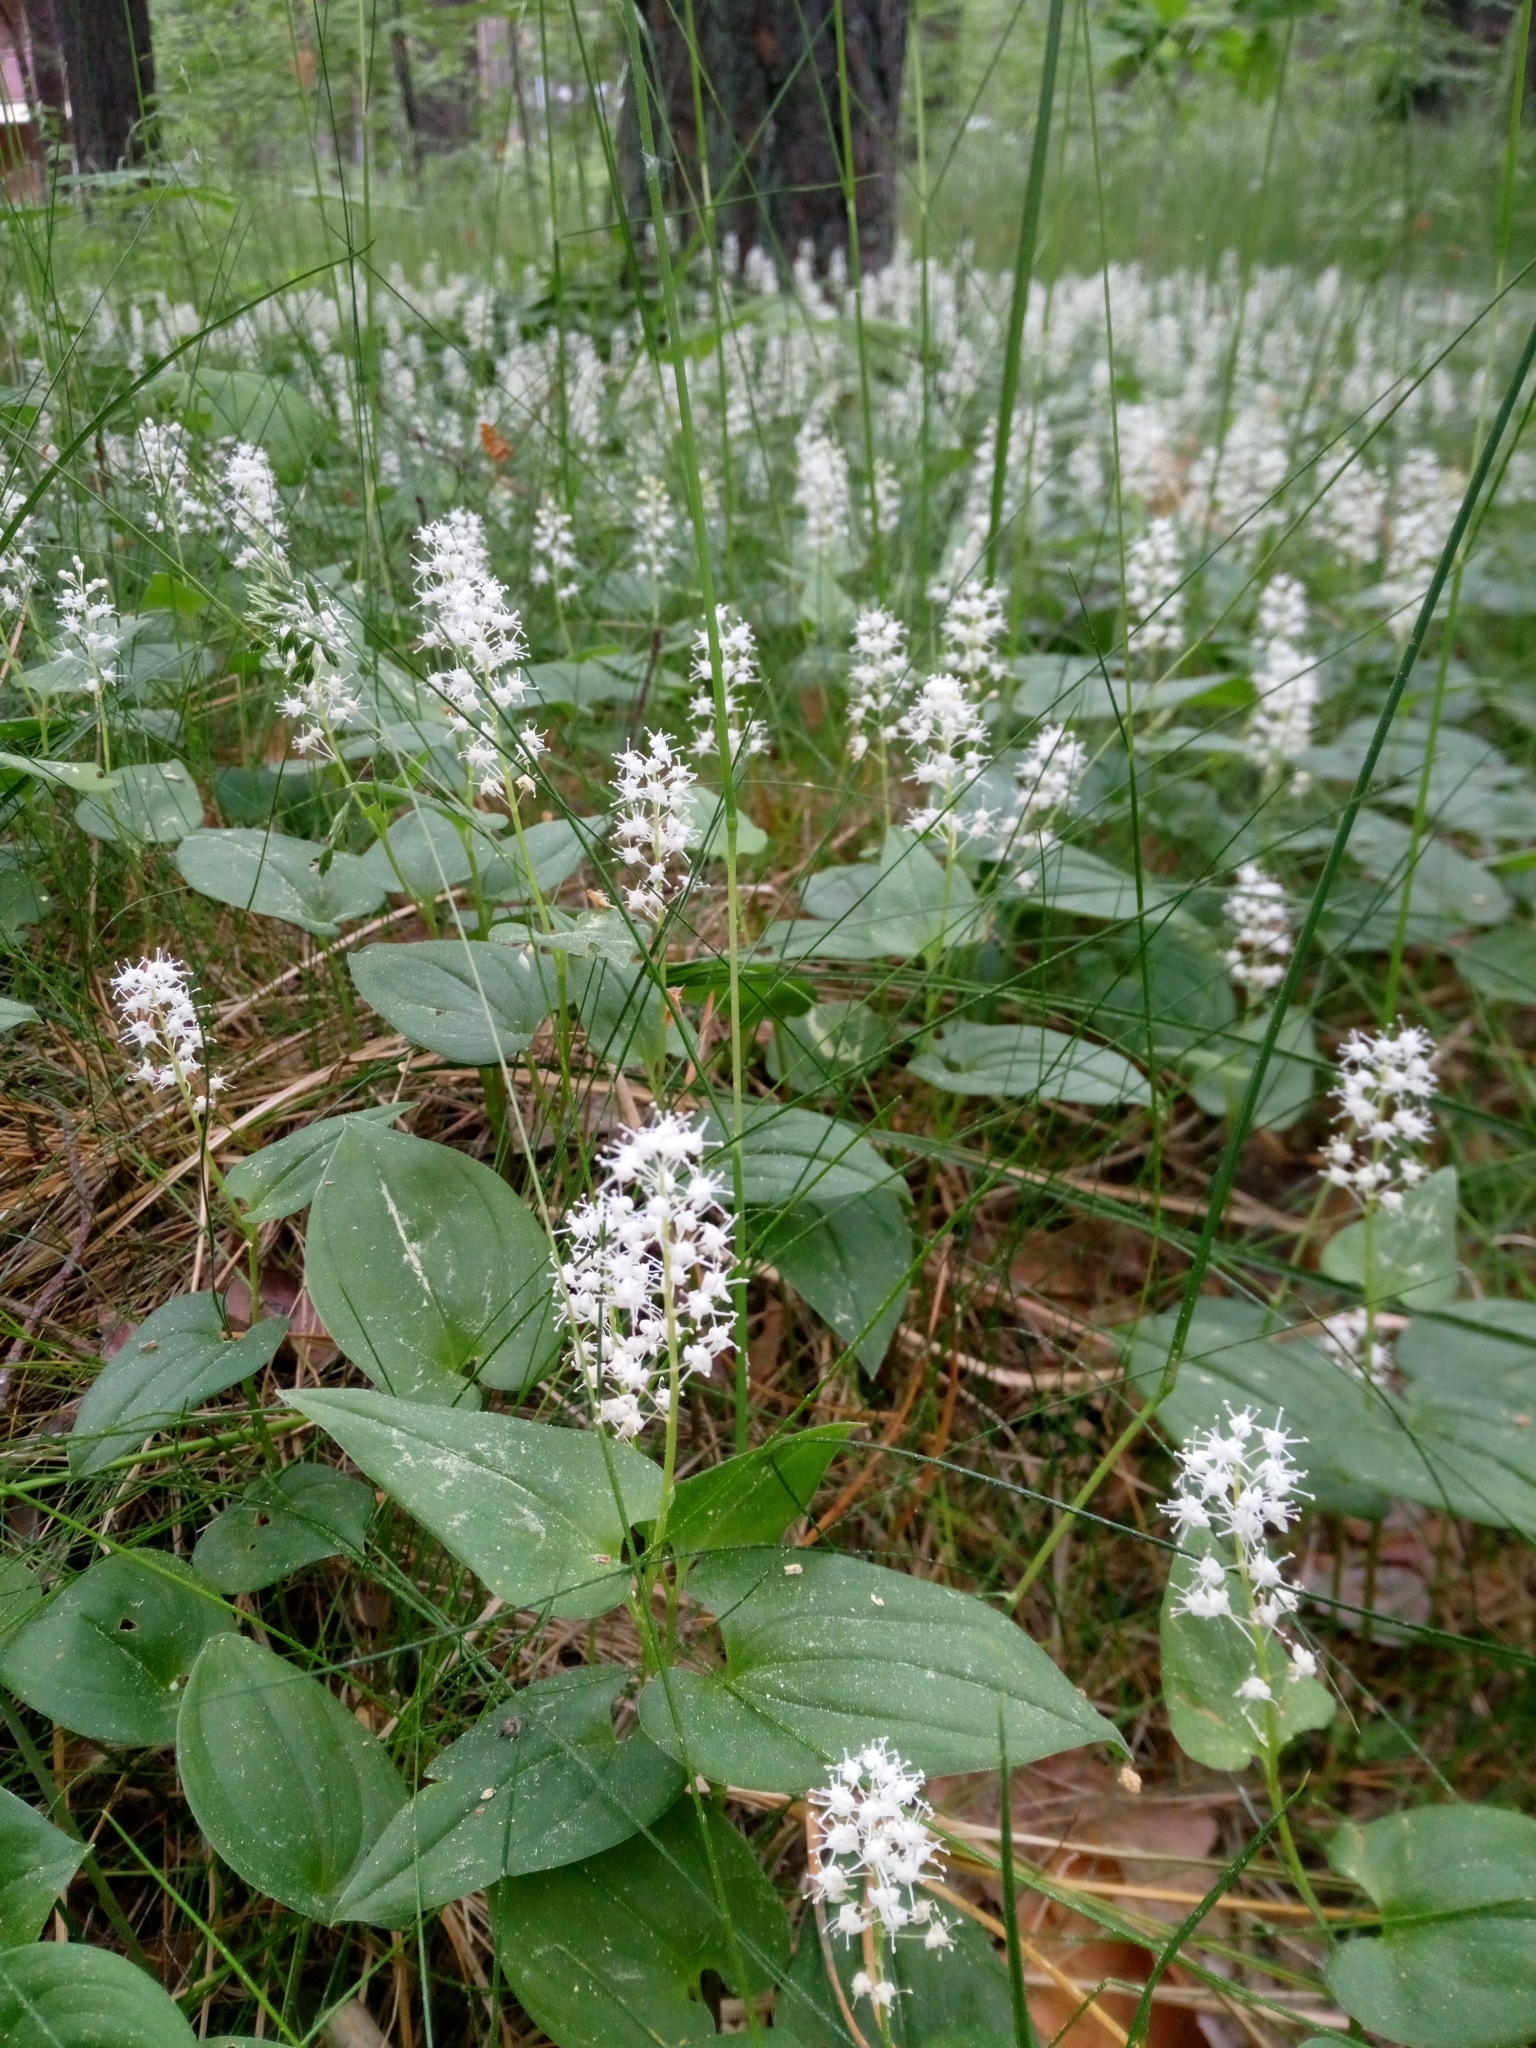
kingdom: Plantae
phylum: Tracheophyta
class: Liliopsida
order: Asparagales
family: Asparagaceae
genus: Maianthemum
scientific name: Maianthemum bifolium
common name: May lily
